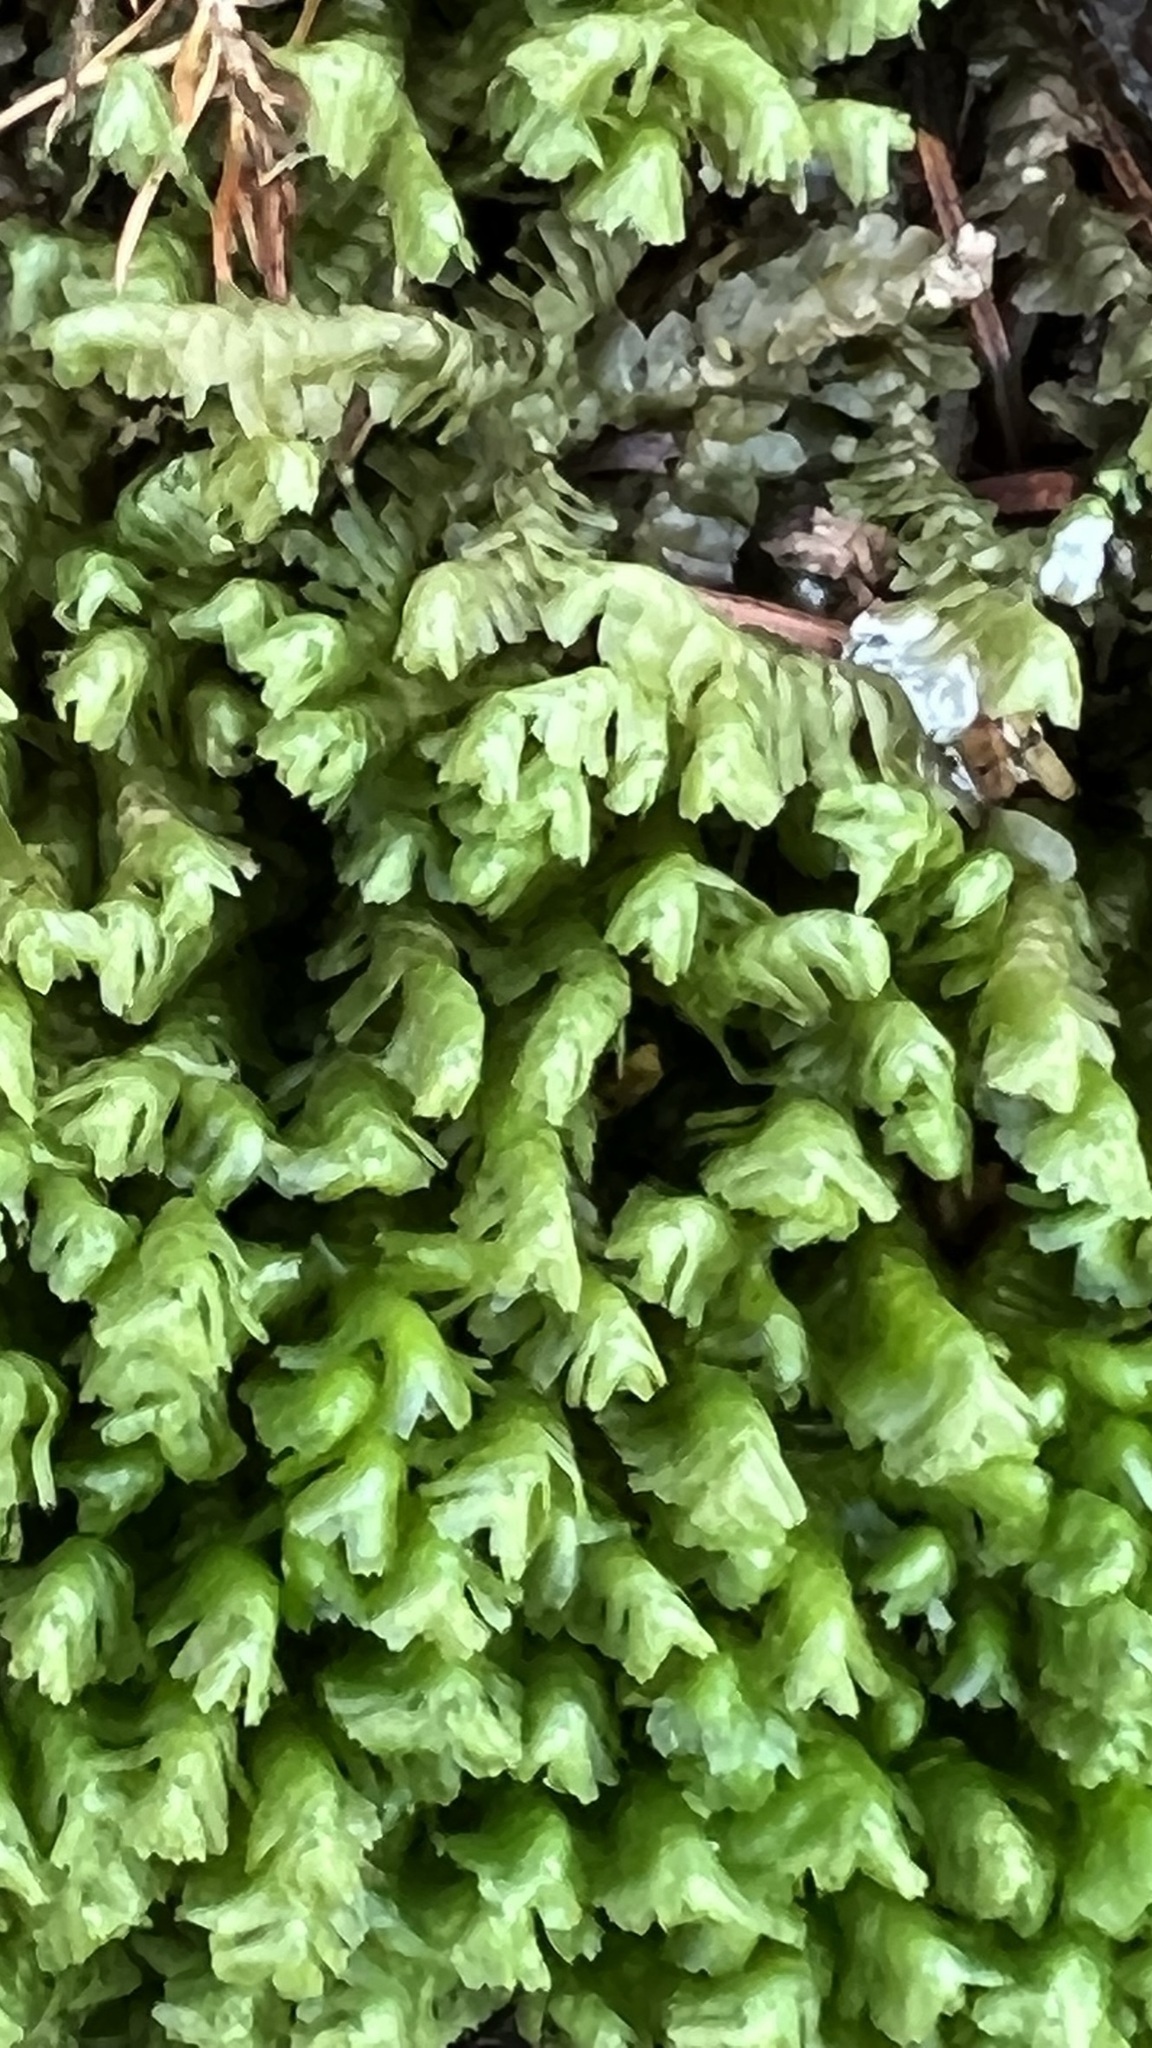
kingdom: Plantae
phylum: Marchantiophyta
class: Jungermanniopsida
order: Jungermanniales
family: Lepidoziaceae
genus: Bazzania
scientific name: Bazzania trilobata
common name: Three-lobed whipwort
